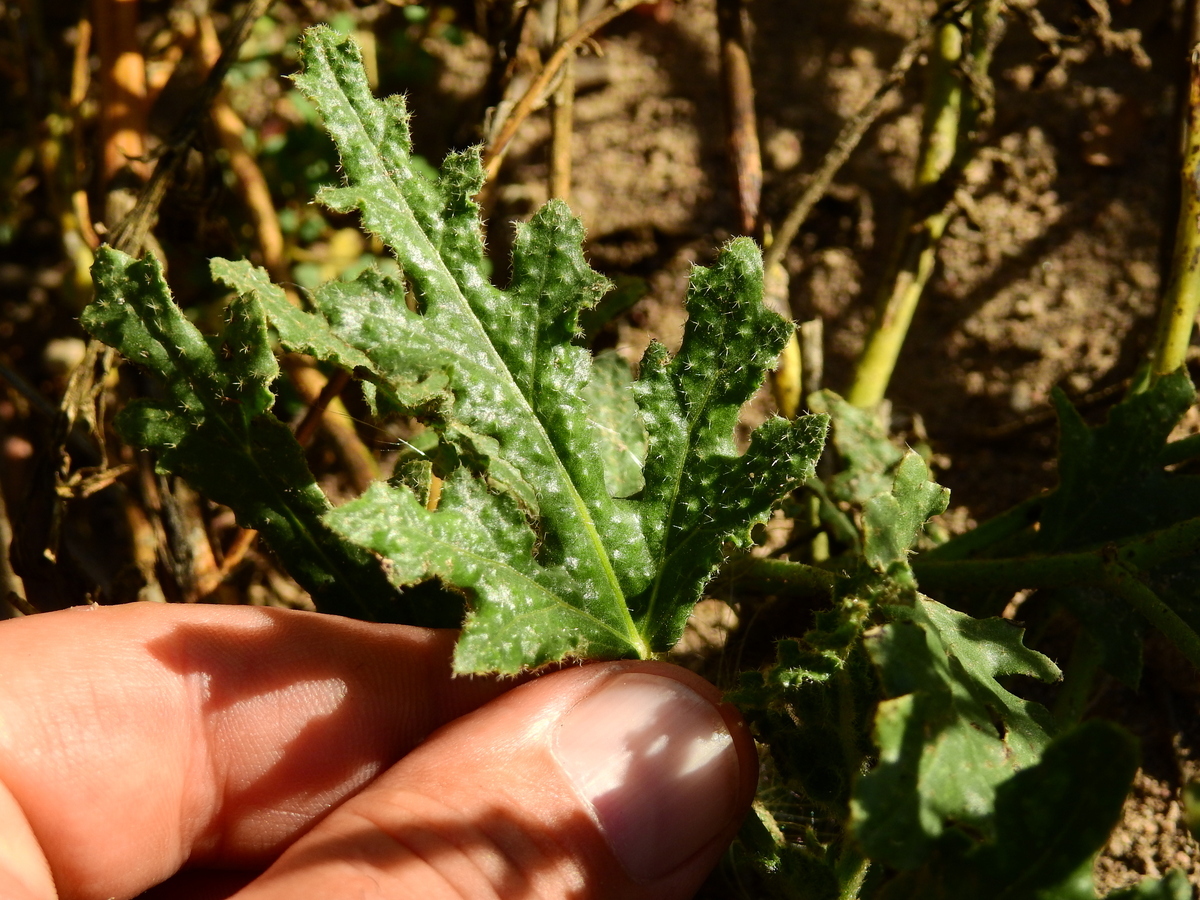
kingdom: Plantae
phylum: Tracheophyta
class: Magnoliopsida
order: Malvales
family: Malvaceae
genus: Lecanophora
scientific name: Lecanophora heterophylla
